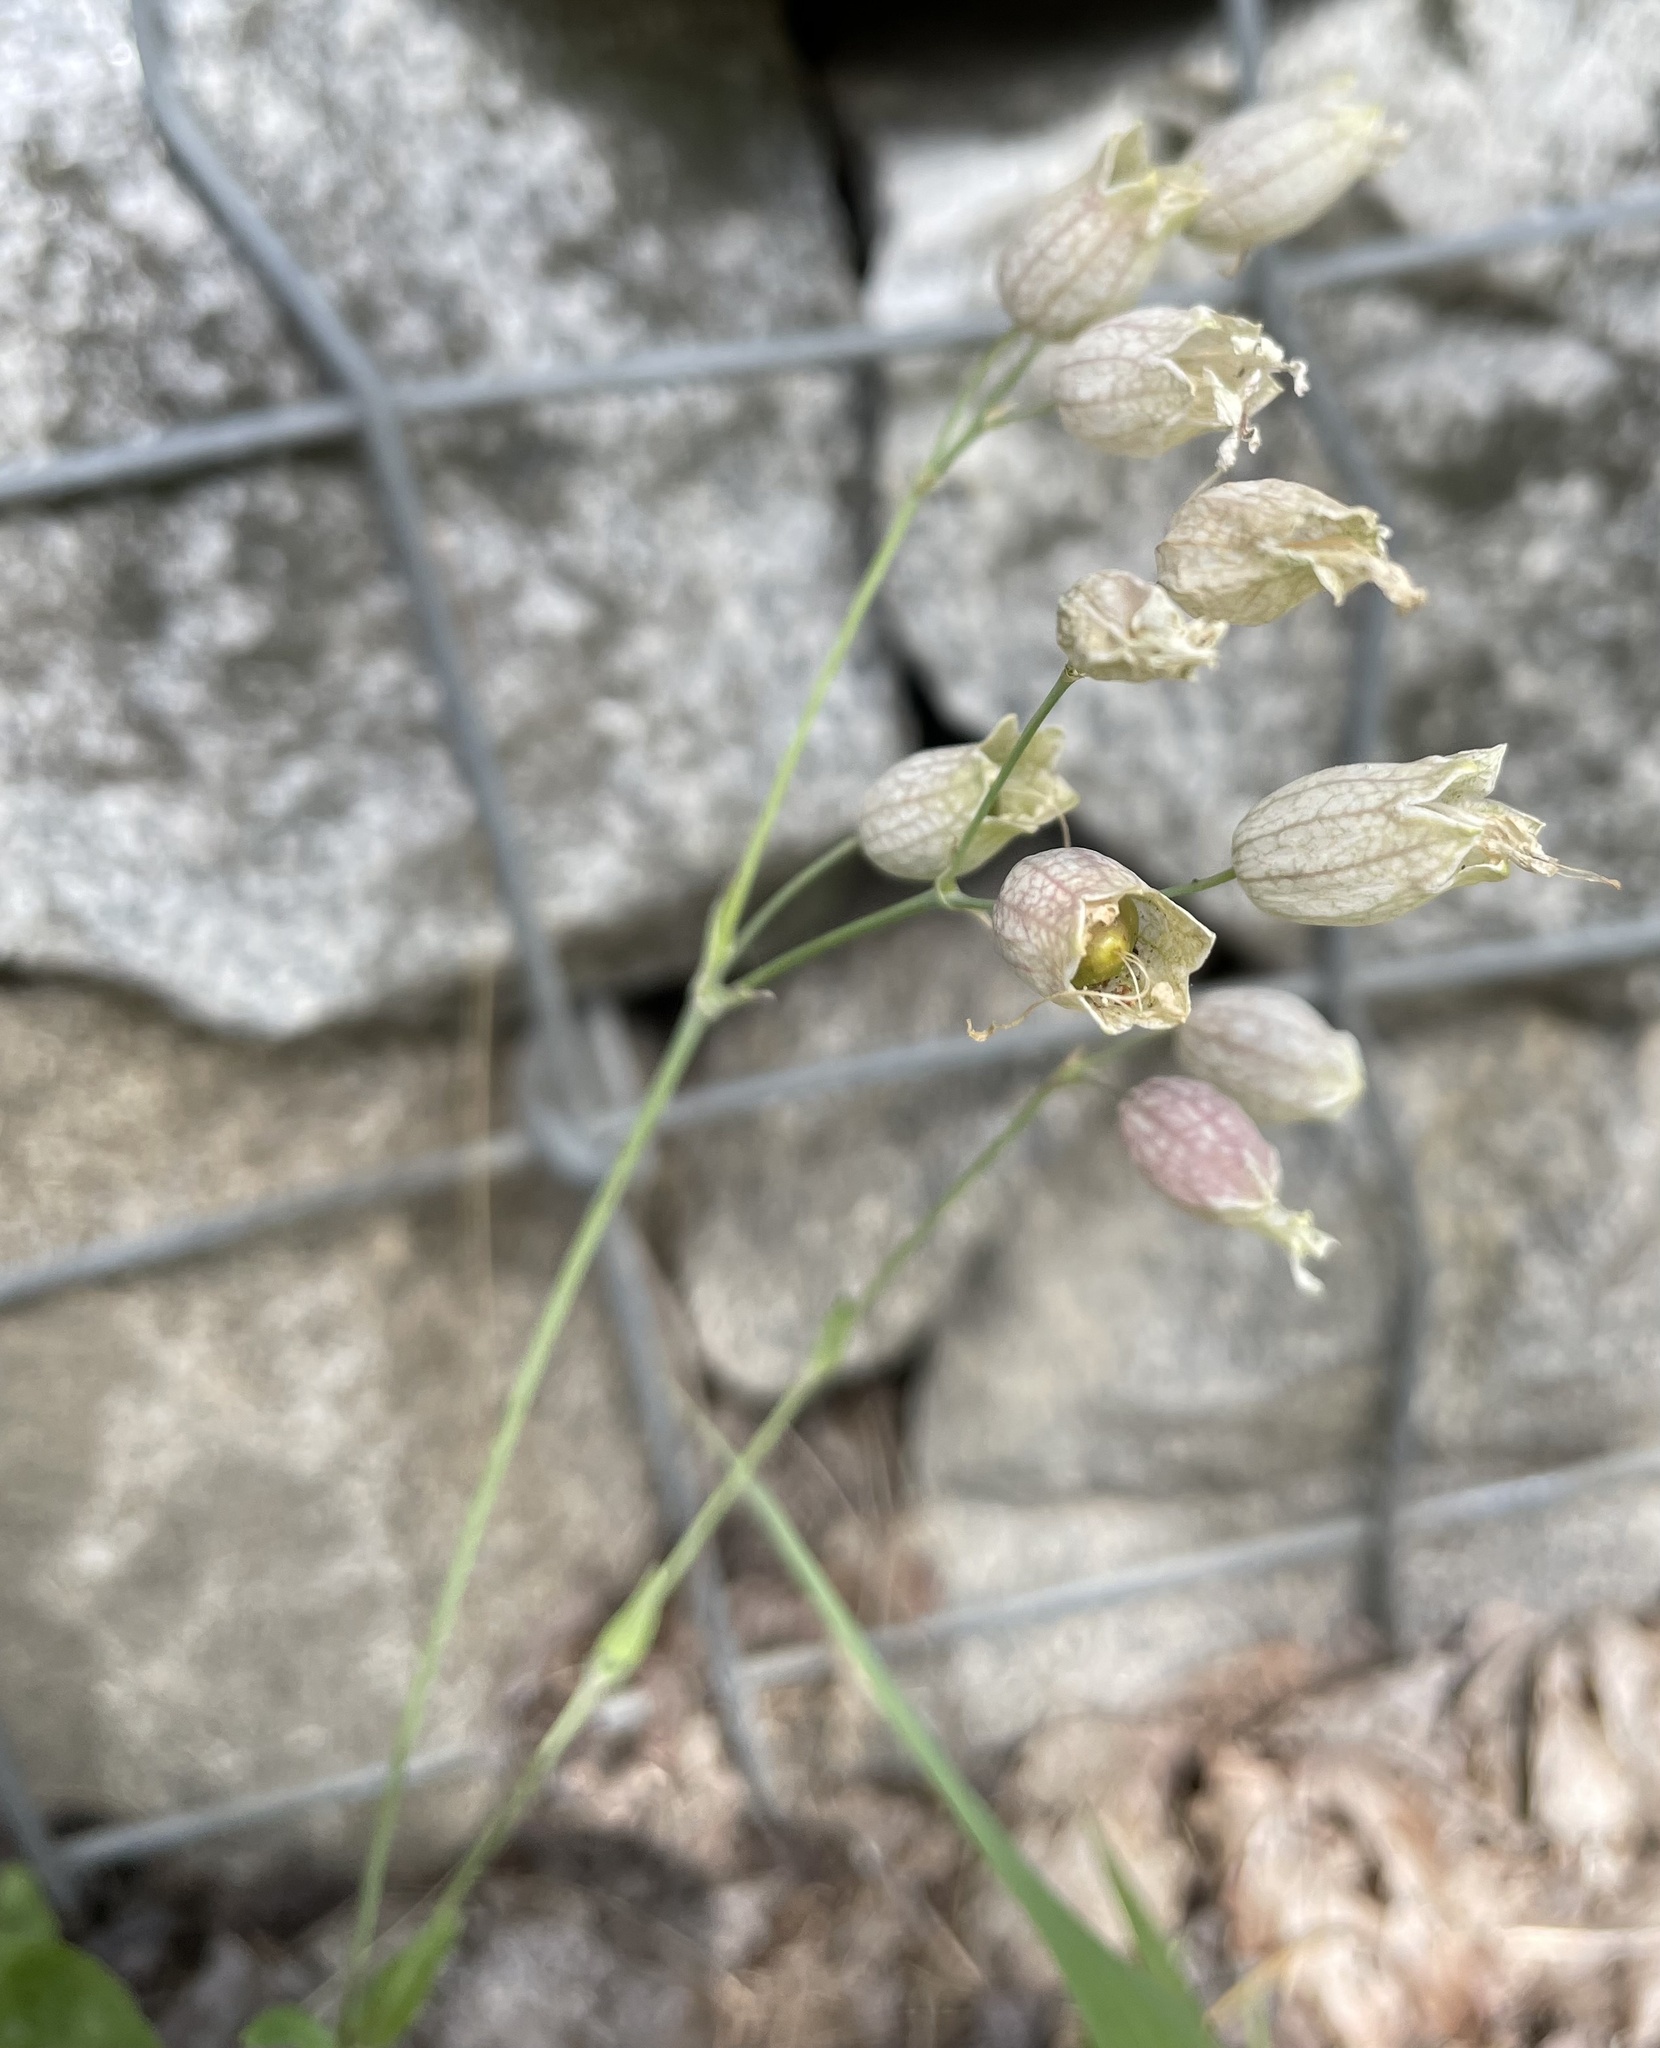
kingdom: Plantae
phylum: Tracheophyta
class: Magnoliopsida
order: Caryophyllales
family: Caryophyllaceae
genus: Silene
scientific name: Silene vulgaris
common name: Bladder campion
